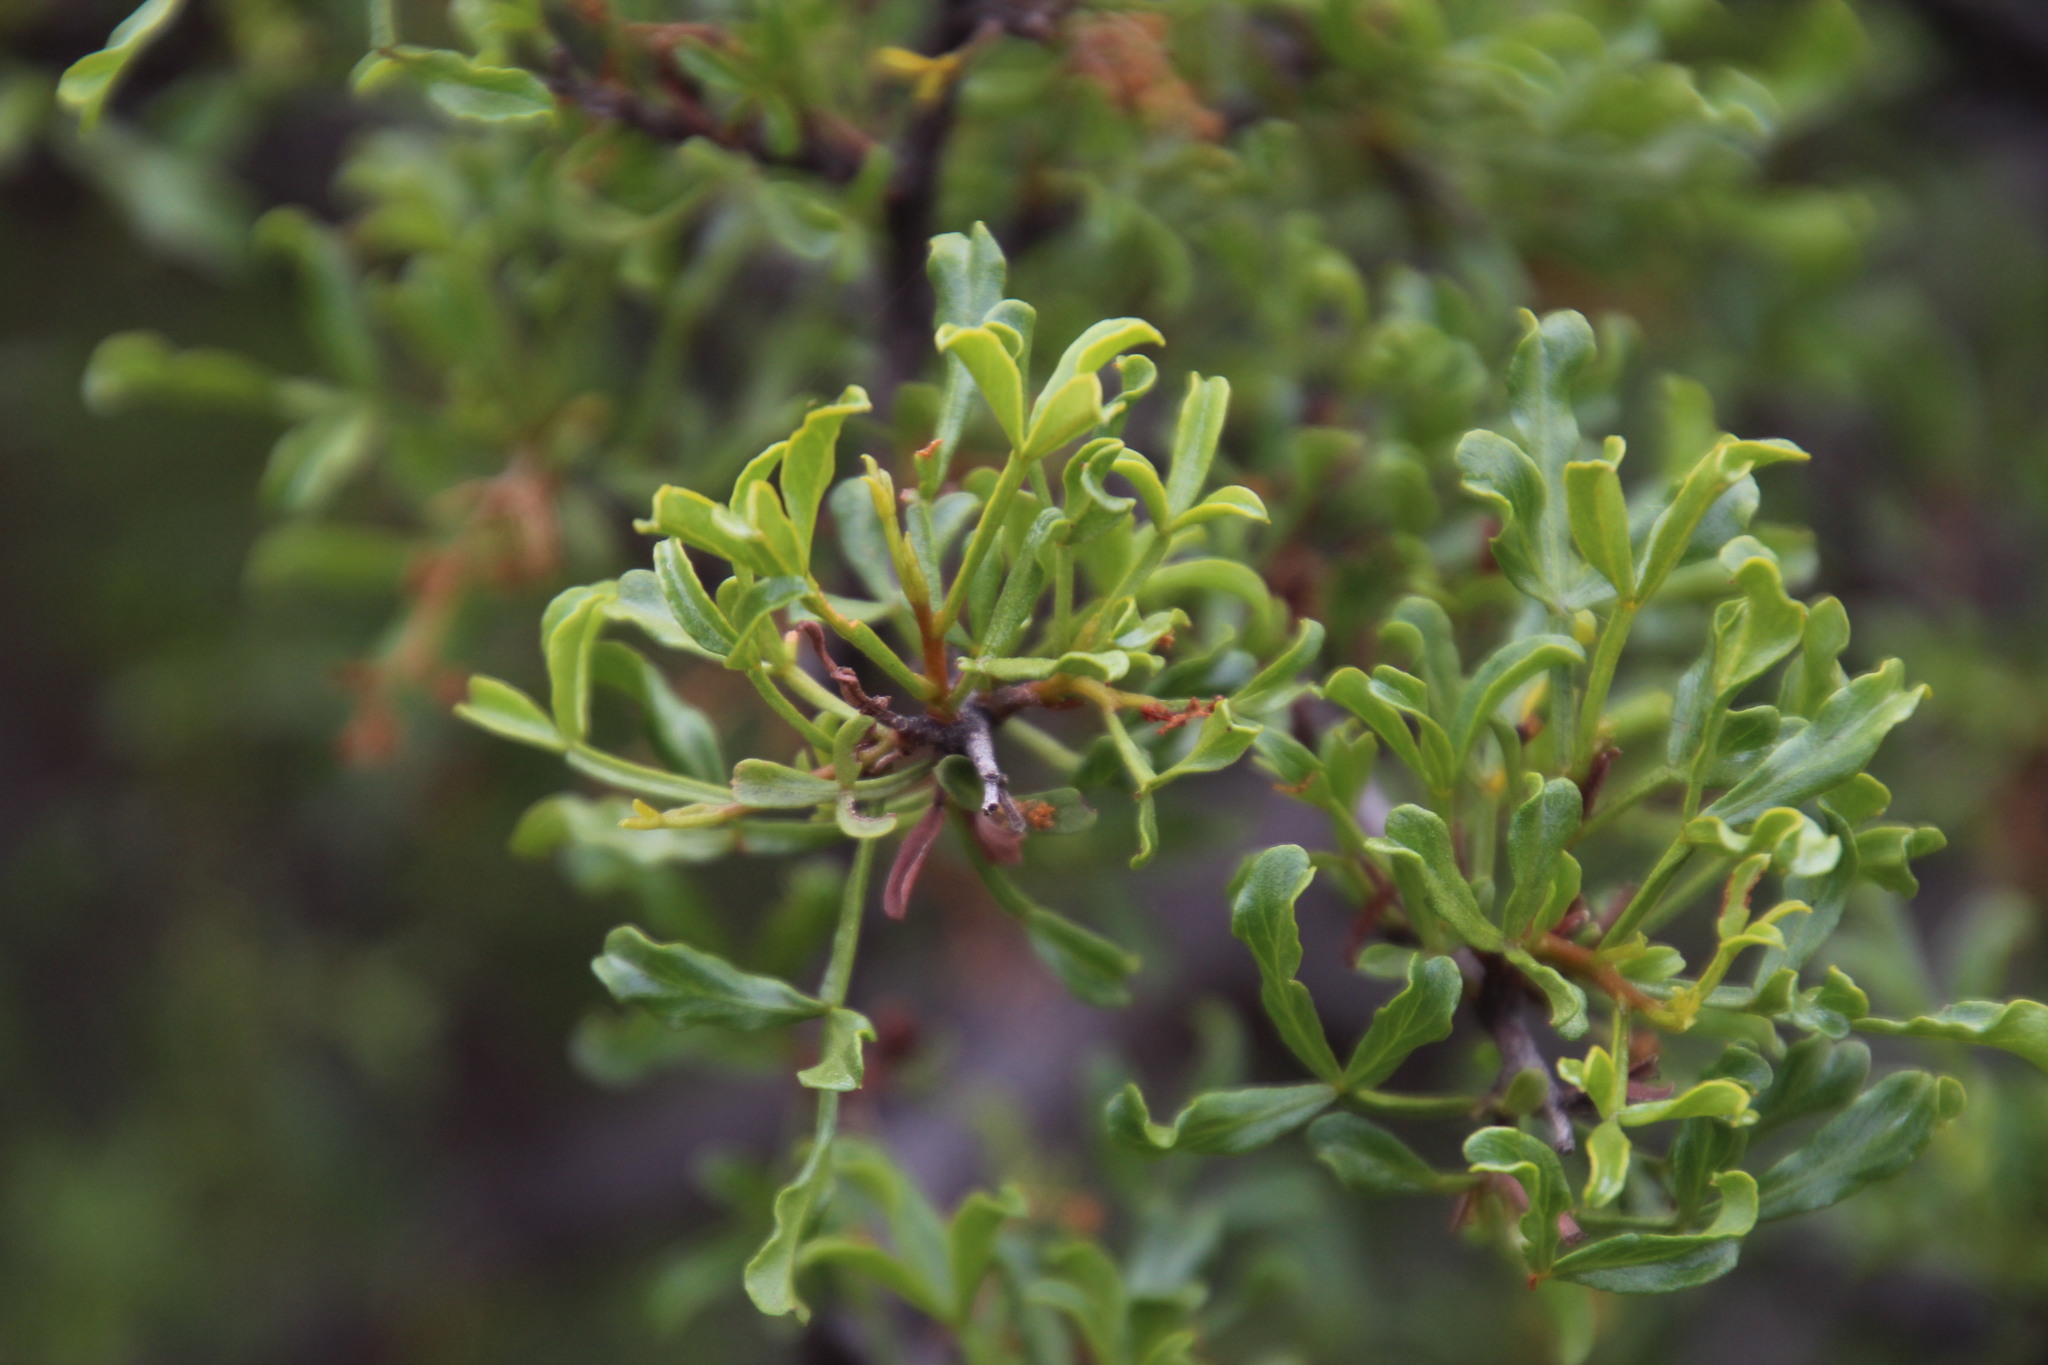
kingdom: Plantae
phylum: Tracheophyta
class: Magnoliopsida
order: Sapindales
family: Anacardiaceae
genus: Searsia
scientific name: Searsia undulata
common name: Namaqua kunibush
